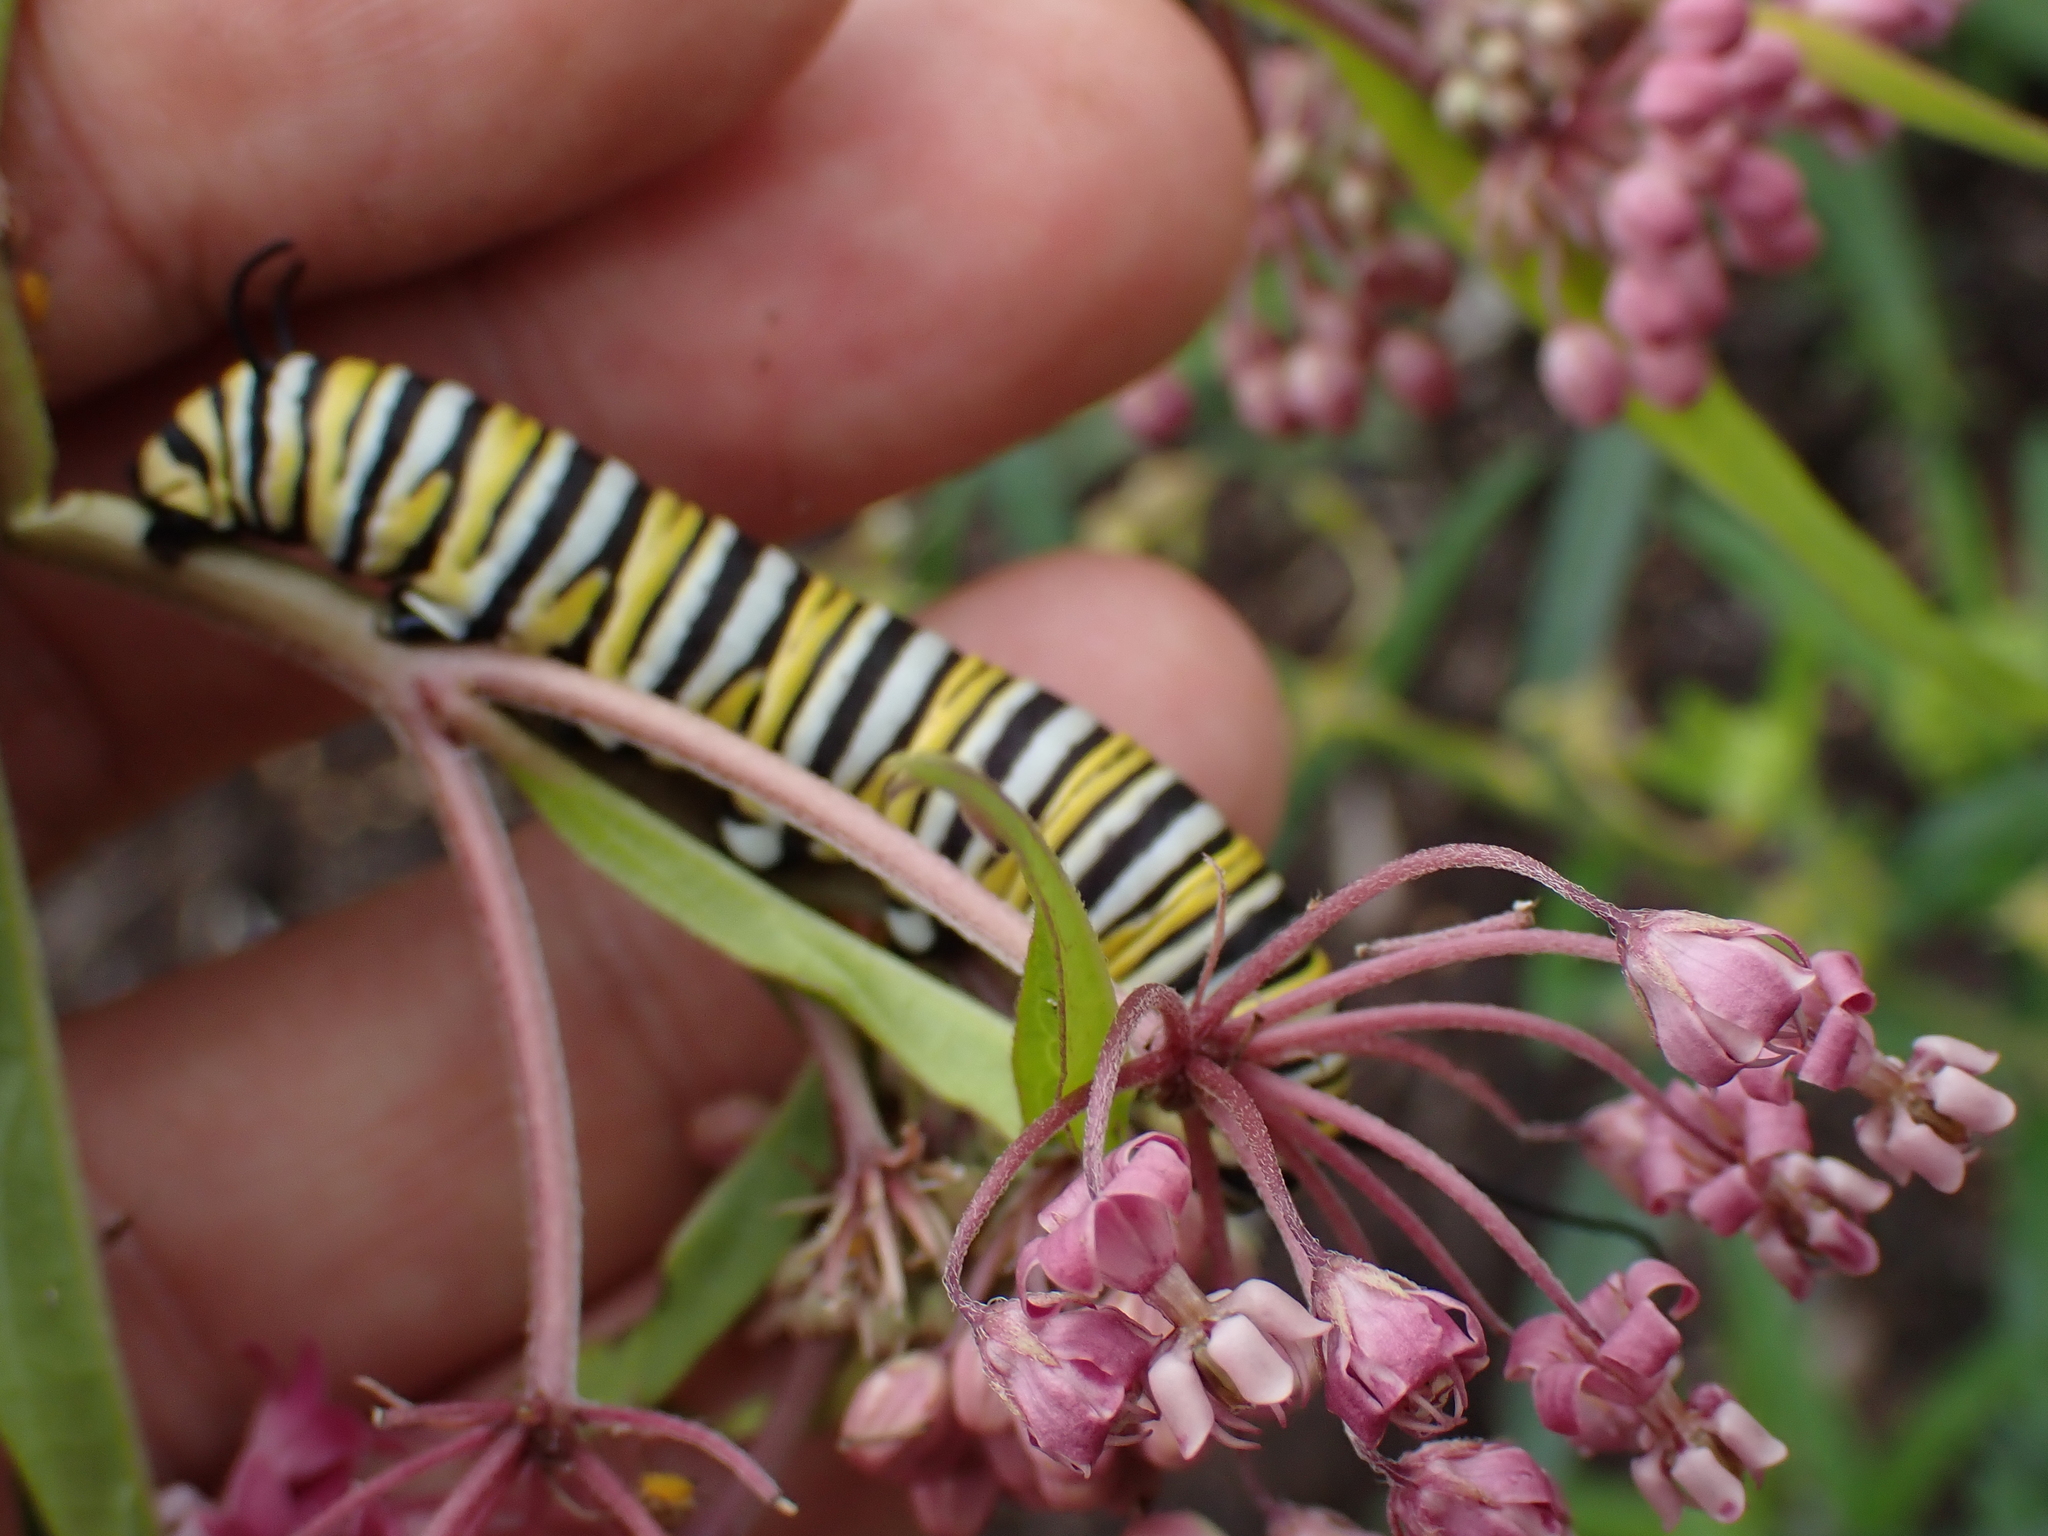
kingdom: Animalia
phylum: Arthropoda
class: Insecta
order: Lepidoptera
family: Nymphalidae
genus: Danaus
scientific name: Danaus plexippus
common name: Monarch
